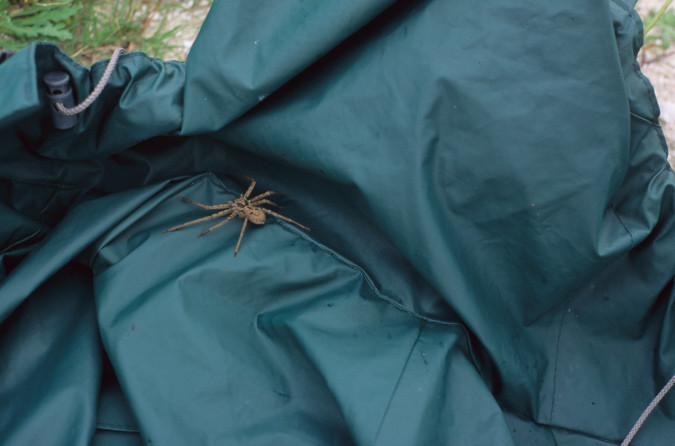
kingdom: Animalia
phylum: Arthropoda
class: Arachnida
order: Araneae
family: Sparassidae
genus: Heteropoda
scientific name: Heteropoda venatoria
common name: Huntsman spider
